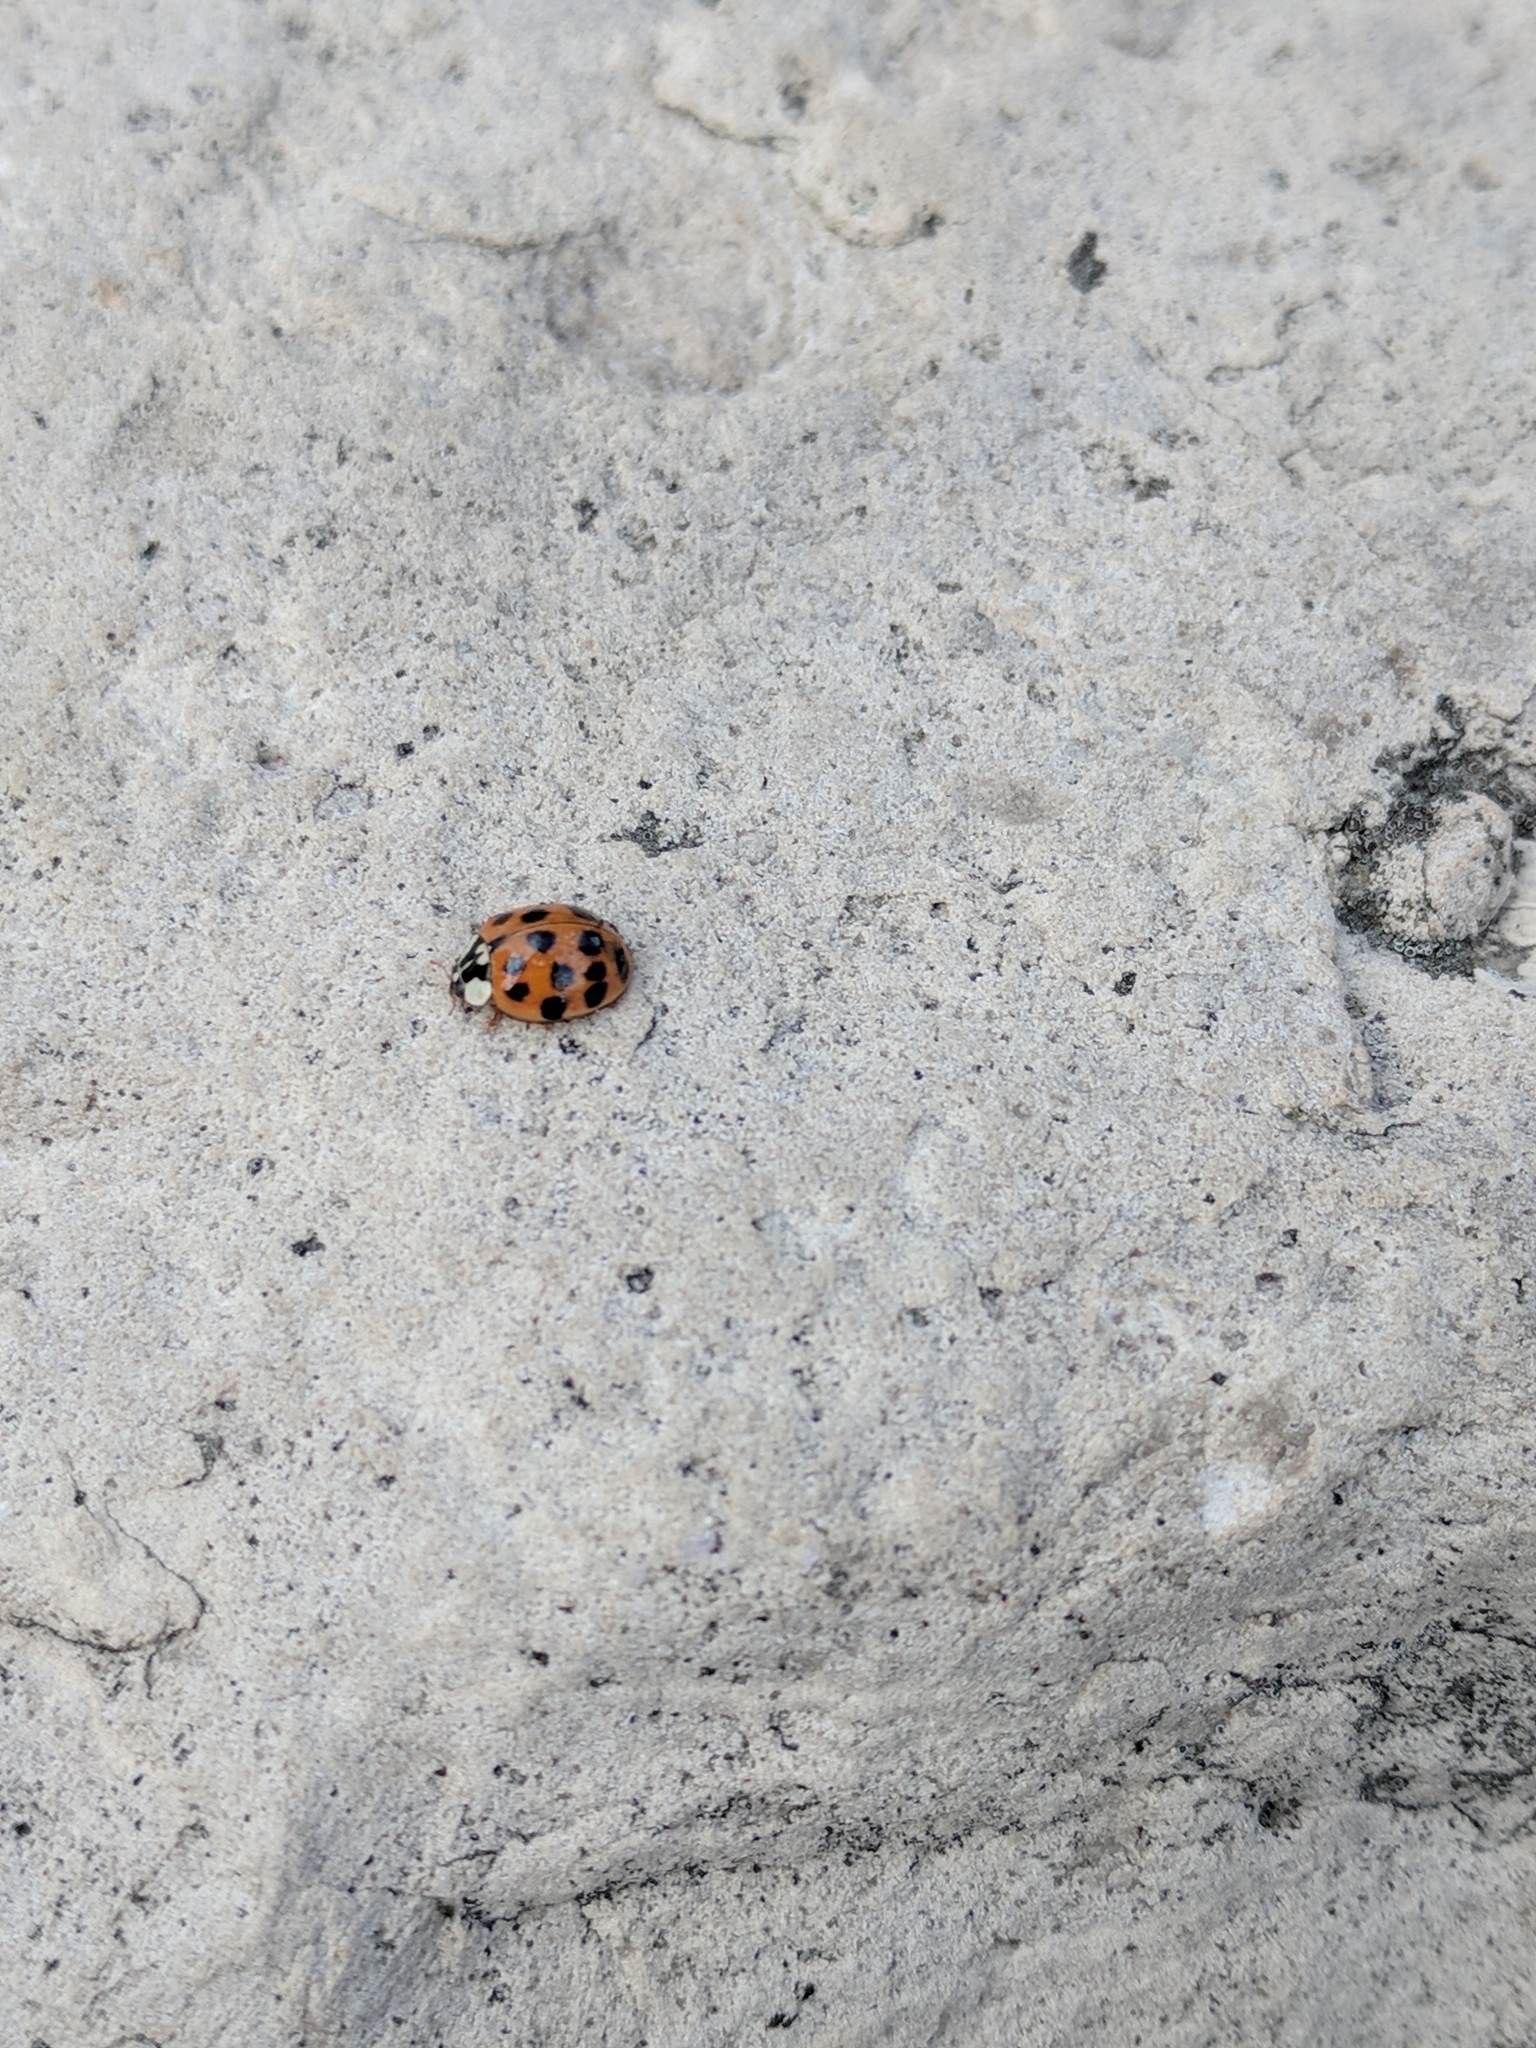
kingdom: Animalia
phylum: Arthropoda
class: Insecta
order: Coleoptera
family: Coccinellidae
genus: Harmonia
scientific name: Harmonia axyridis
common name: Harlequin ladybird
